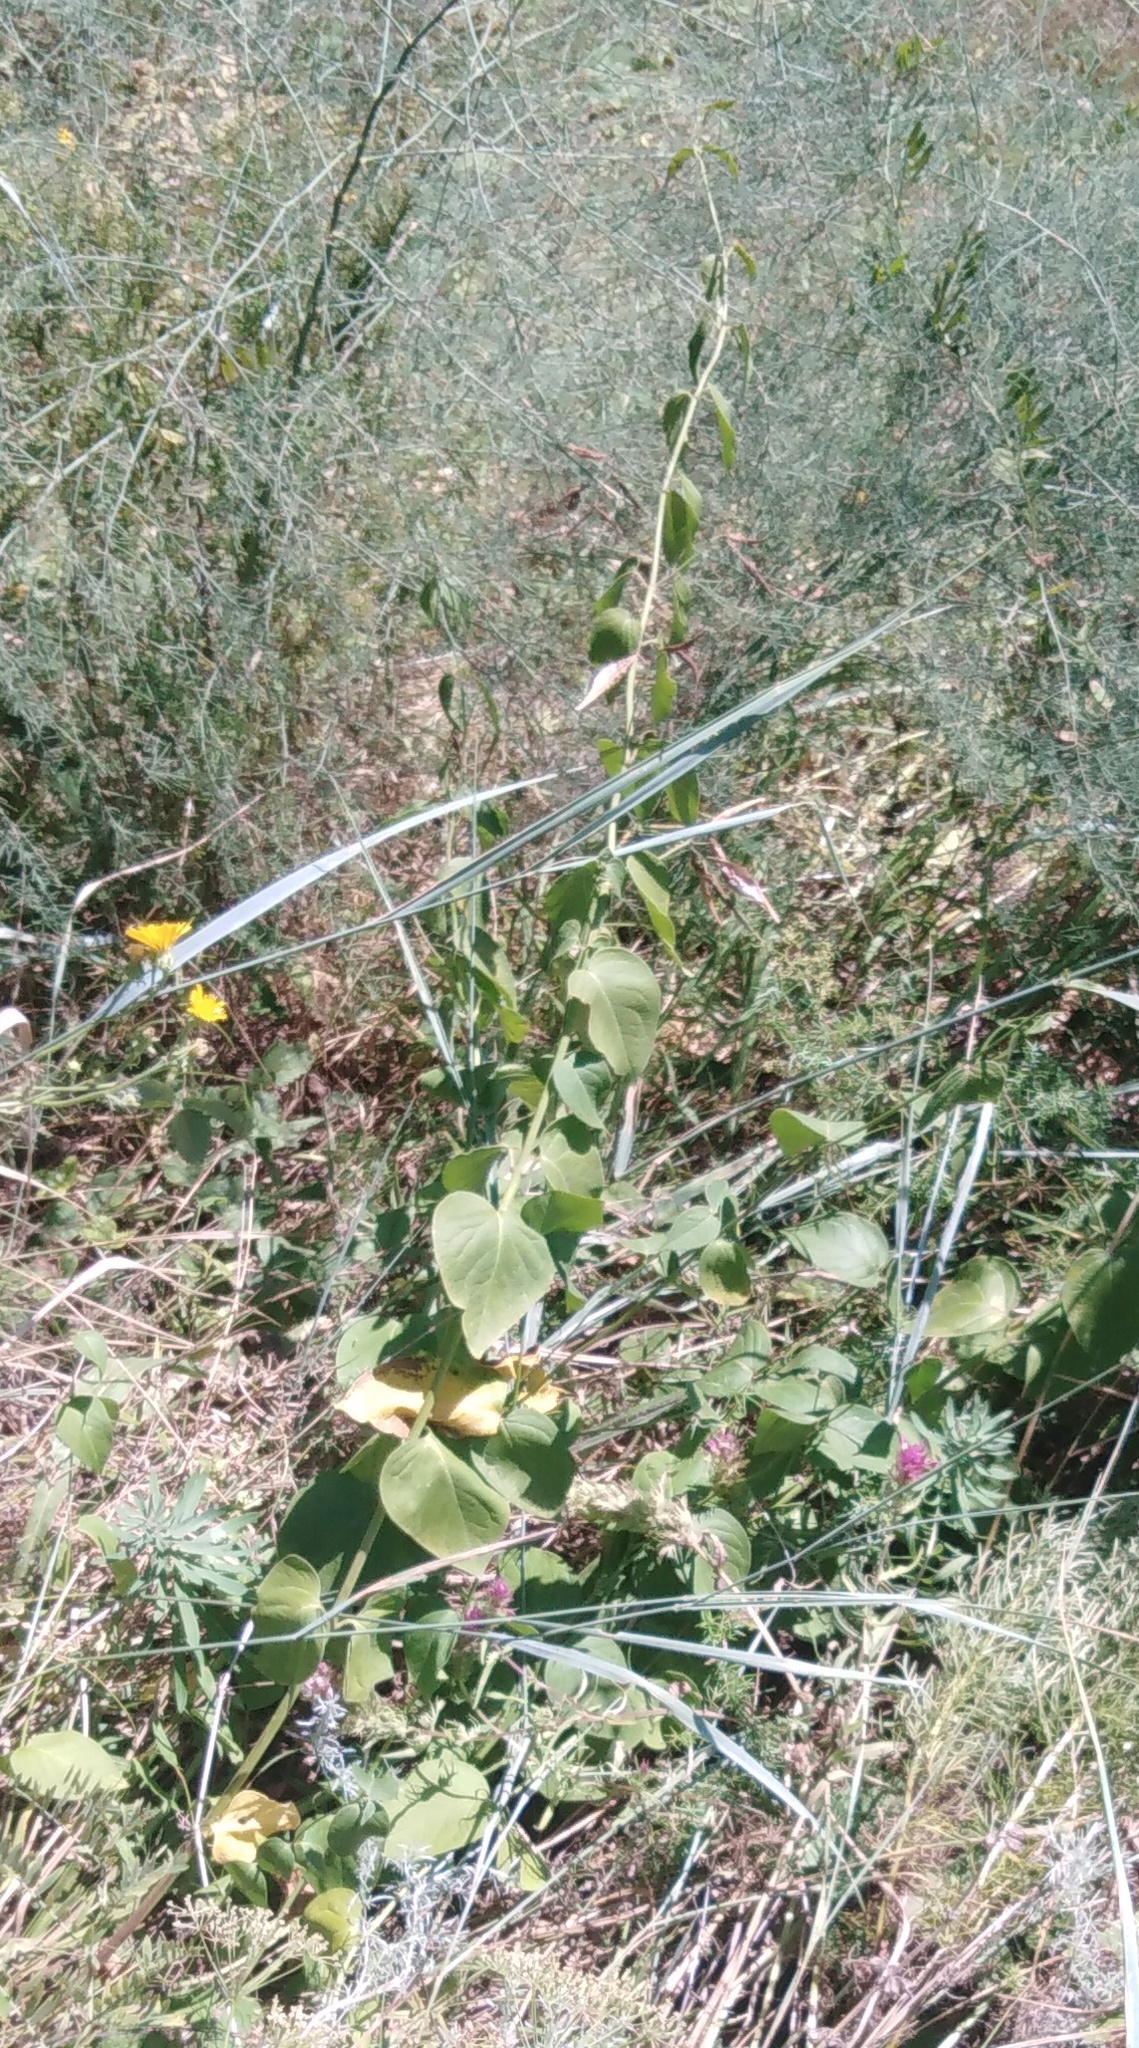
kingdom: Plantae
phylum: Tracheophyta
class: Magnoliopsida
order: Gentianales
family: Apocynaceae
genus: Vincetoxicum
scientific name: Vincetoxicum hirundinaria
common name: White swallowwort
